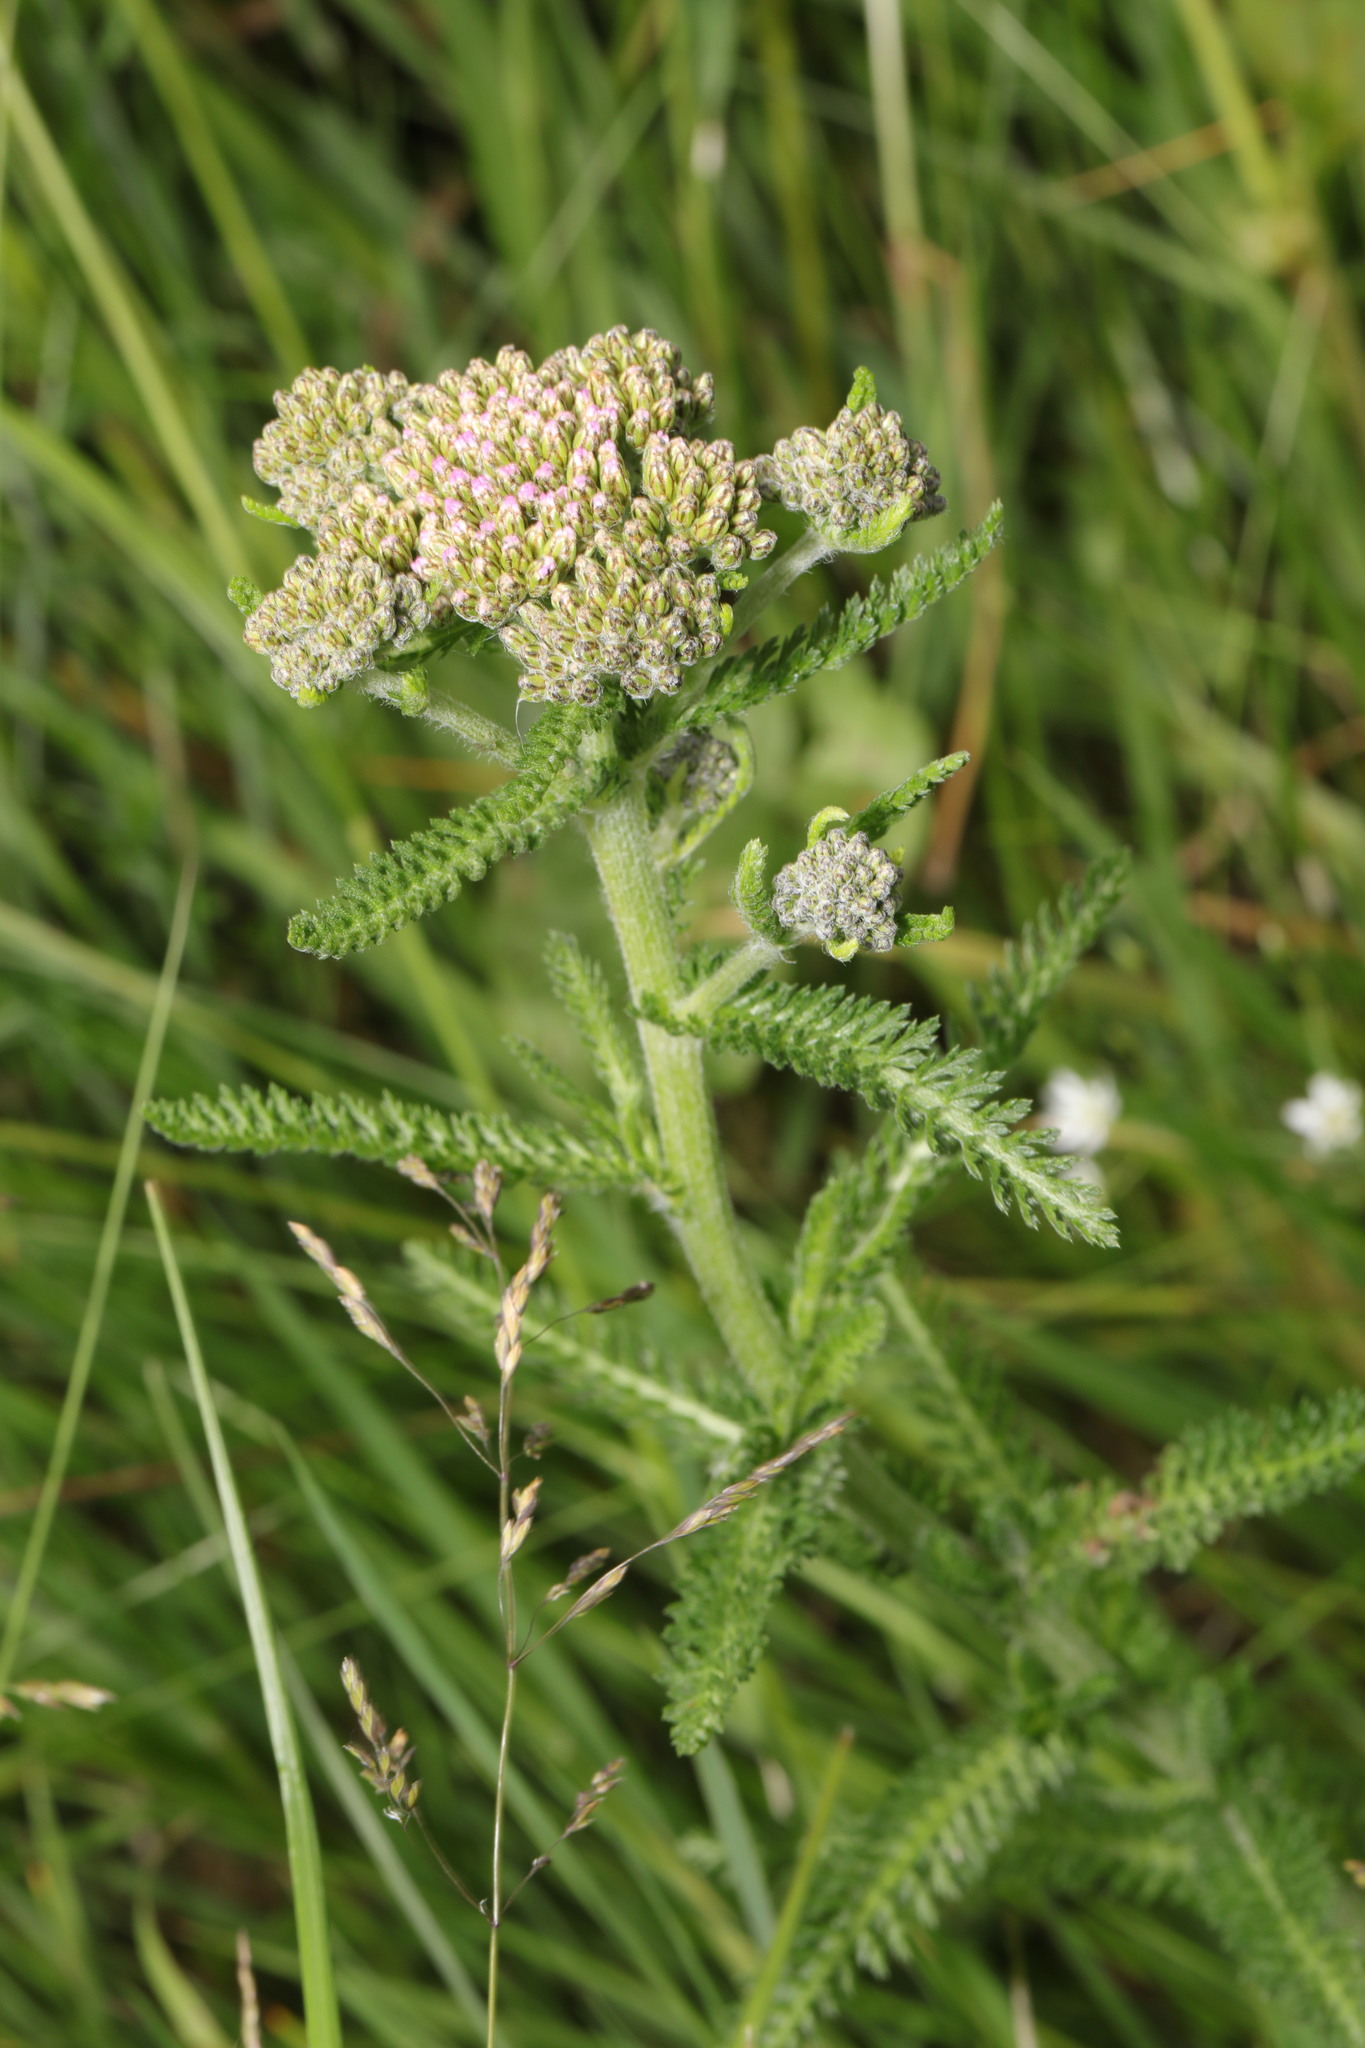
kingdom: Plantae
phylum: Tracheophyta
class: Magnoliopsida
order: Asterales
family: Asteraceae
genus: Achillea
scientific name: Achillea millefolium
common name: Yarrow
